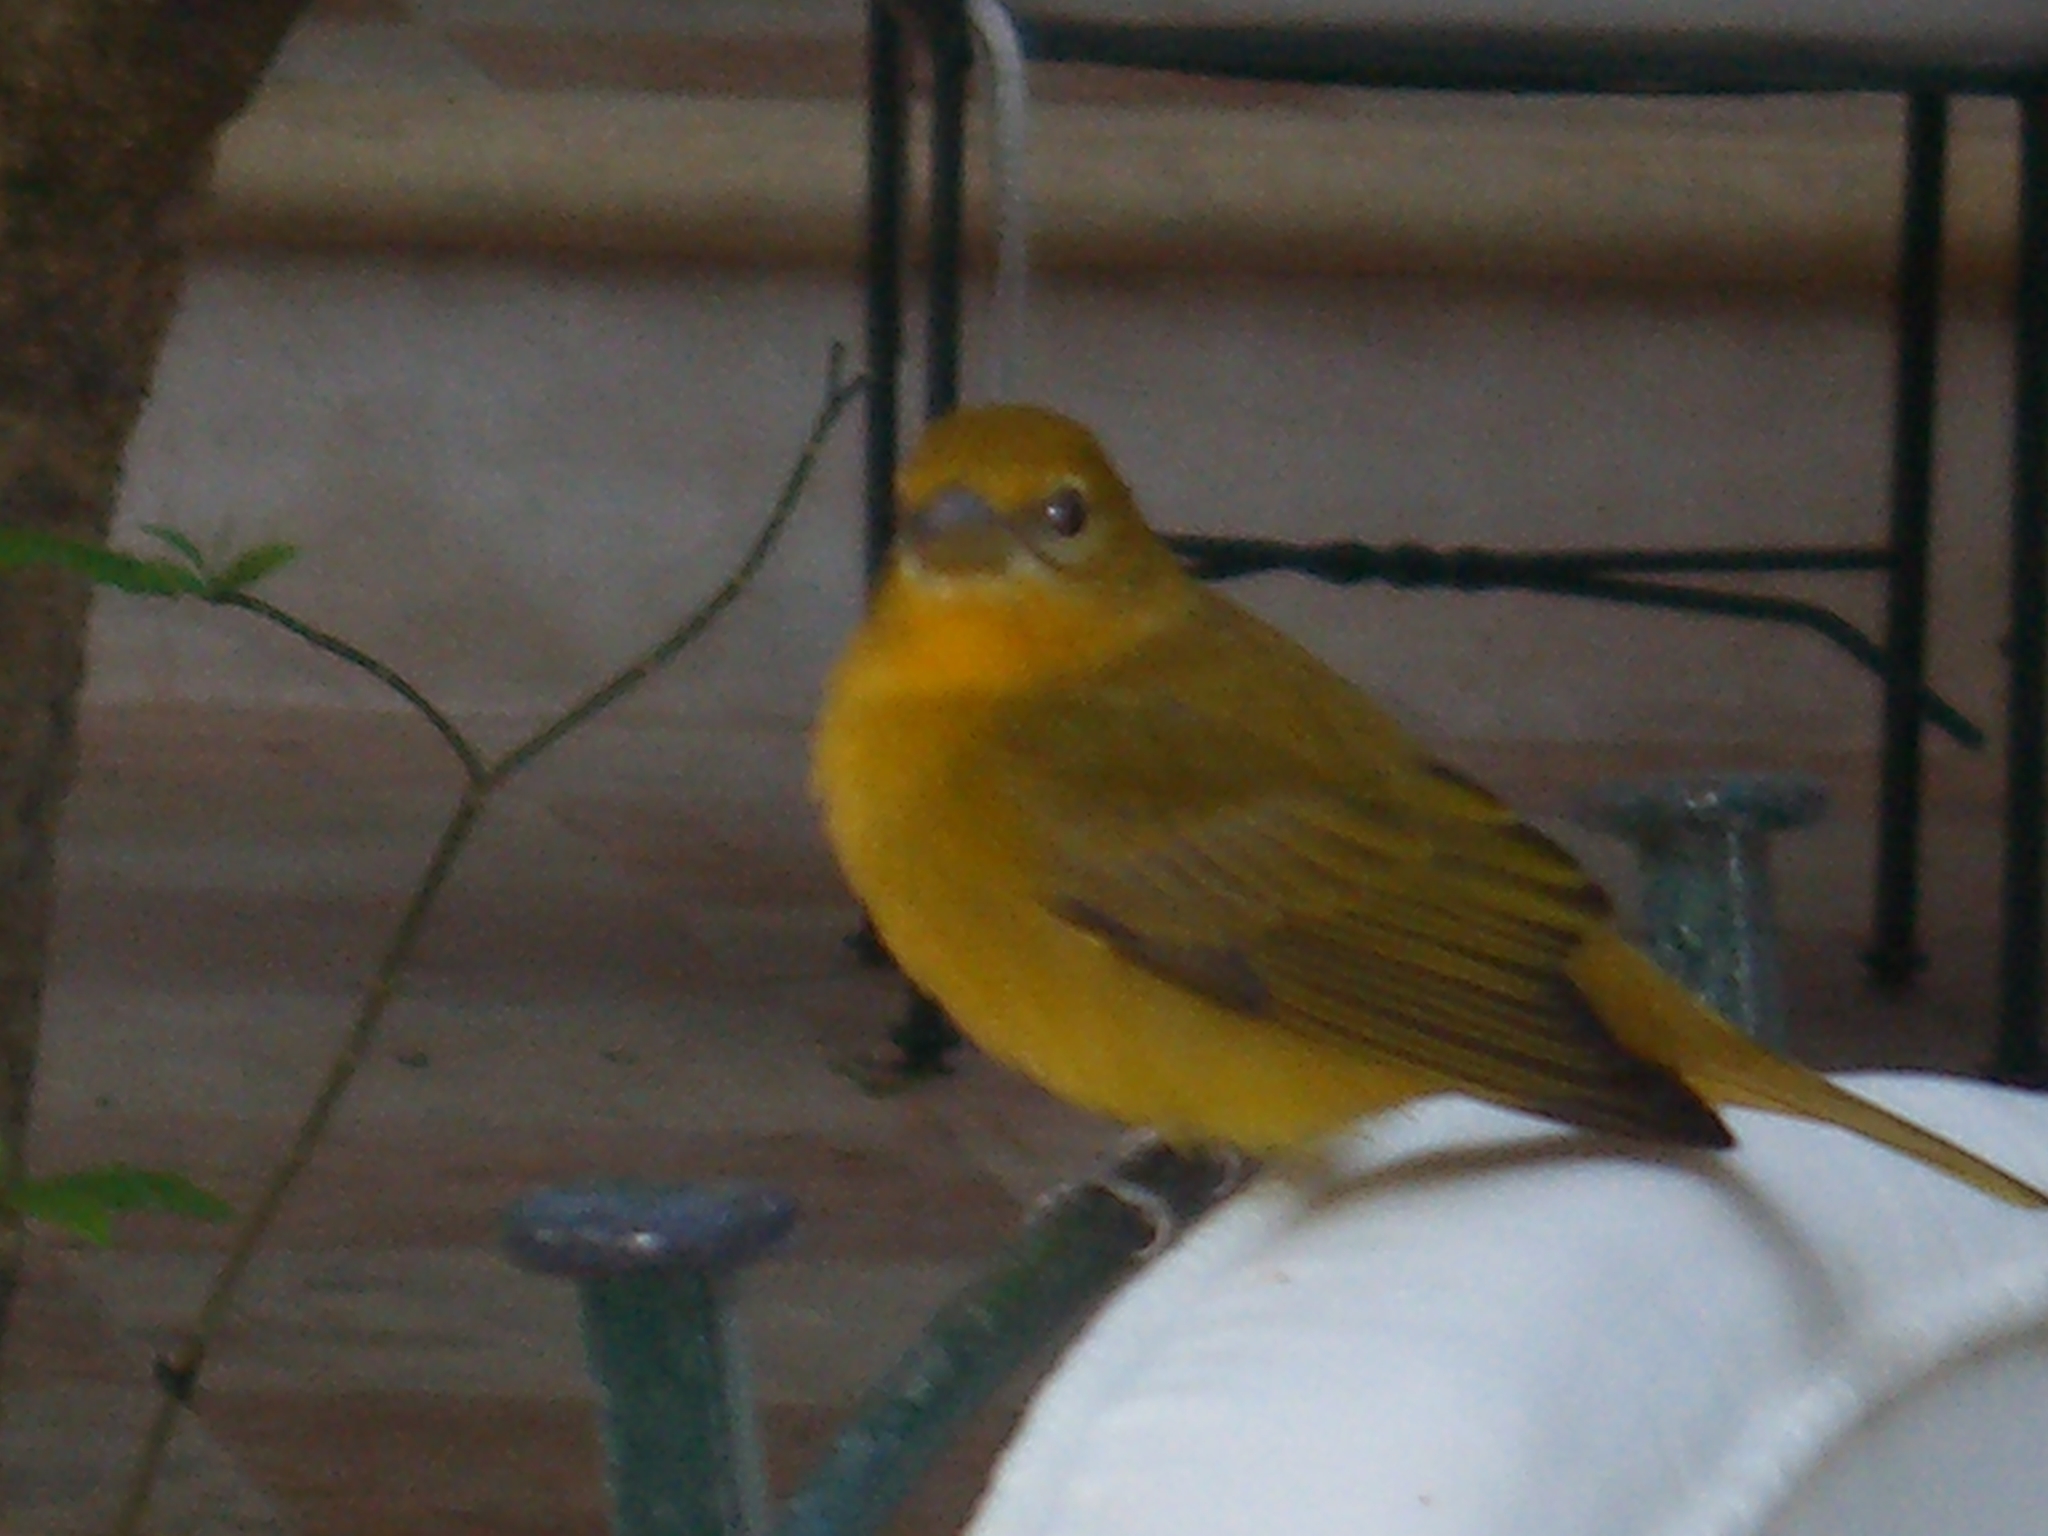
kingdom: Animalia
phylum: Chordata
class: Aves
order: Passeriformes
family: Cardinalidae
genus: Piranga
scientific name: Piranga rubra
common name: Summer tanager
